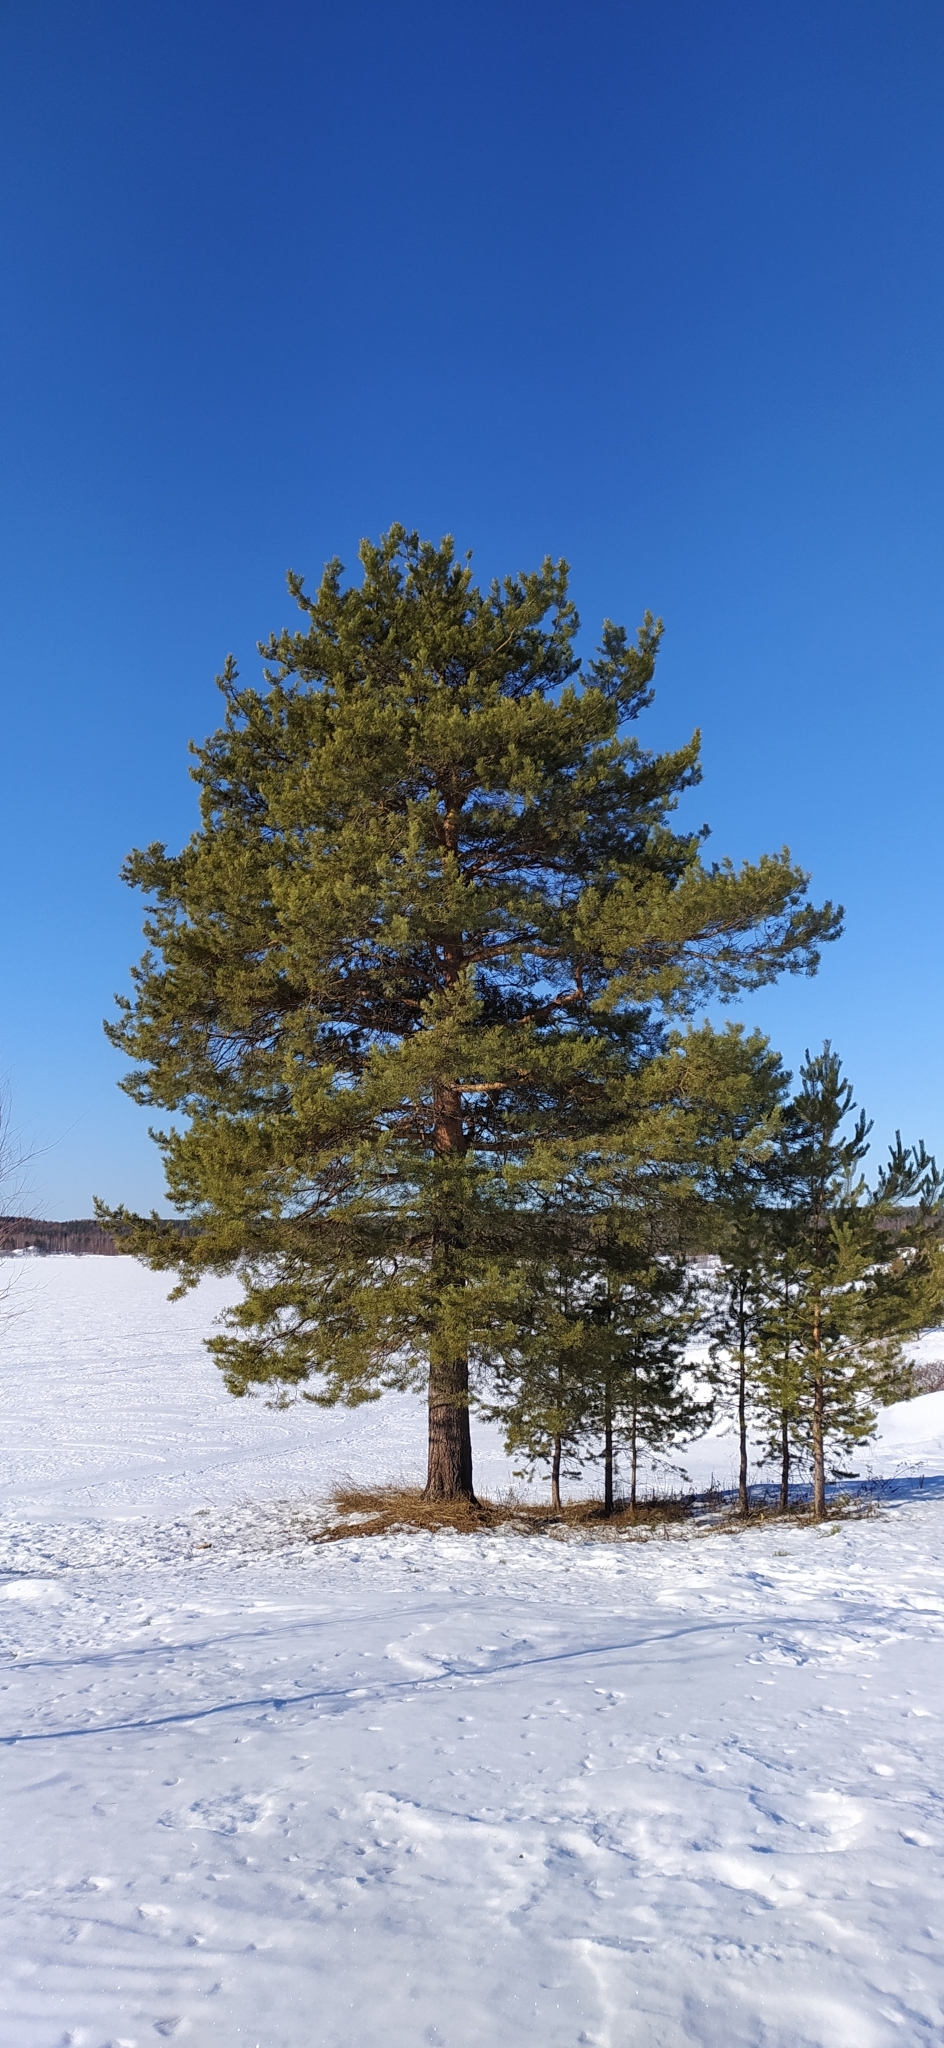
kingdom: Plantae
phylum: Tracheophyta
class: Pinopsida
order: Pinales
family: Pinaceae
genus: Pinus
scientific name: Pinus sylvestris
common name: Scots pine
